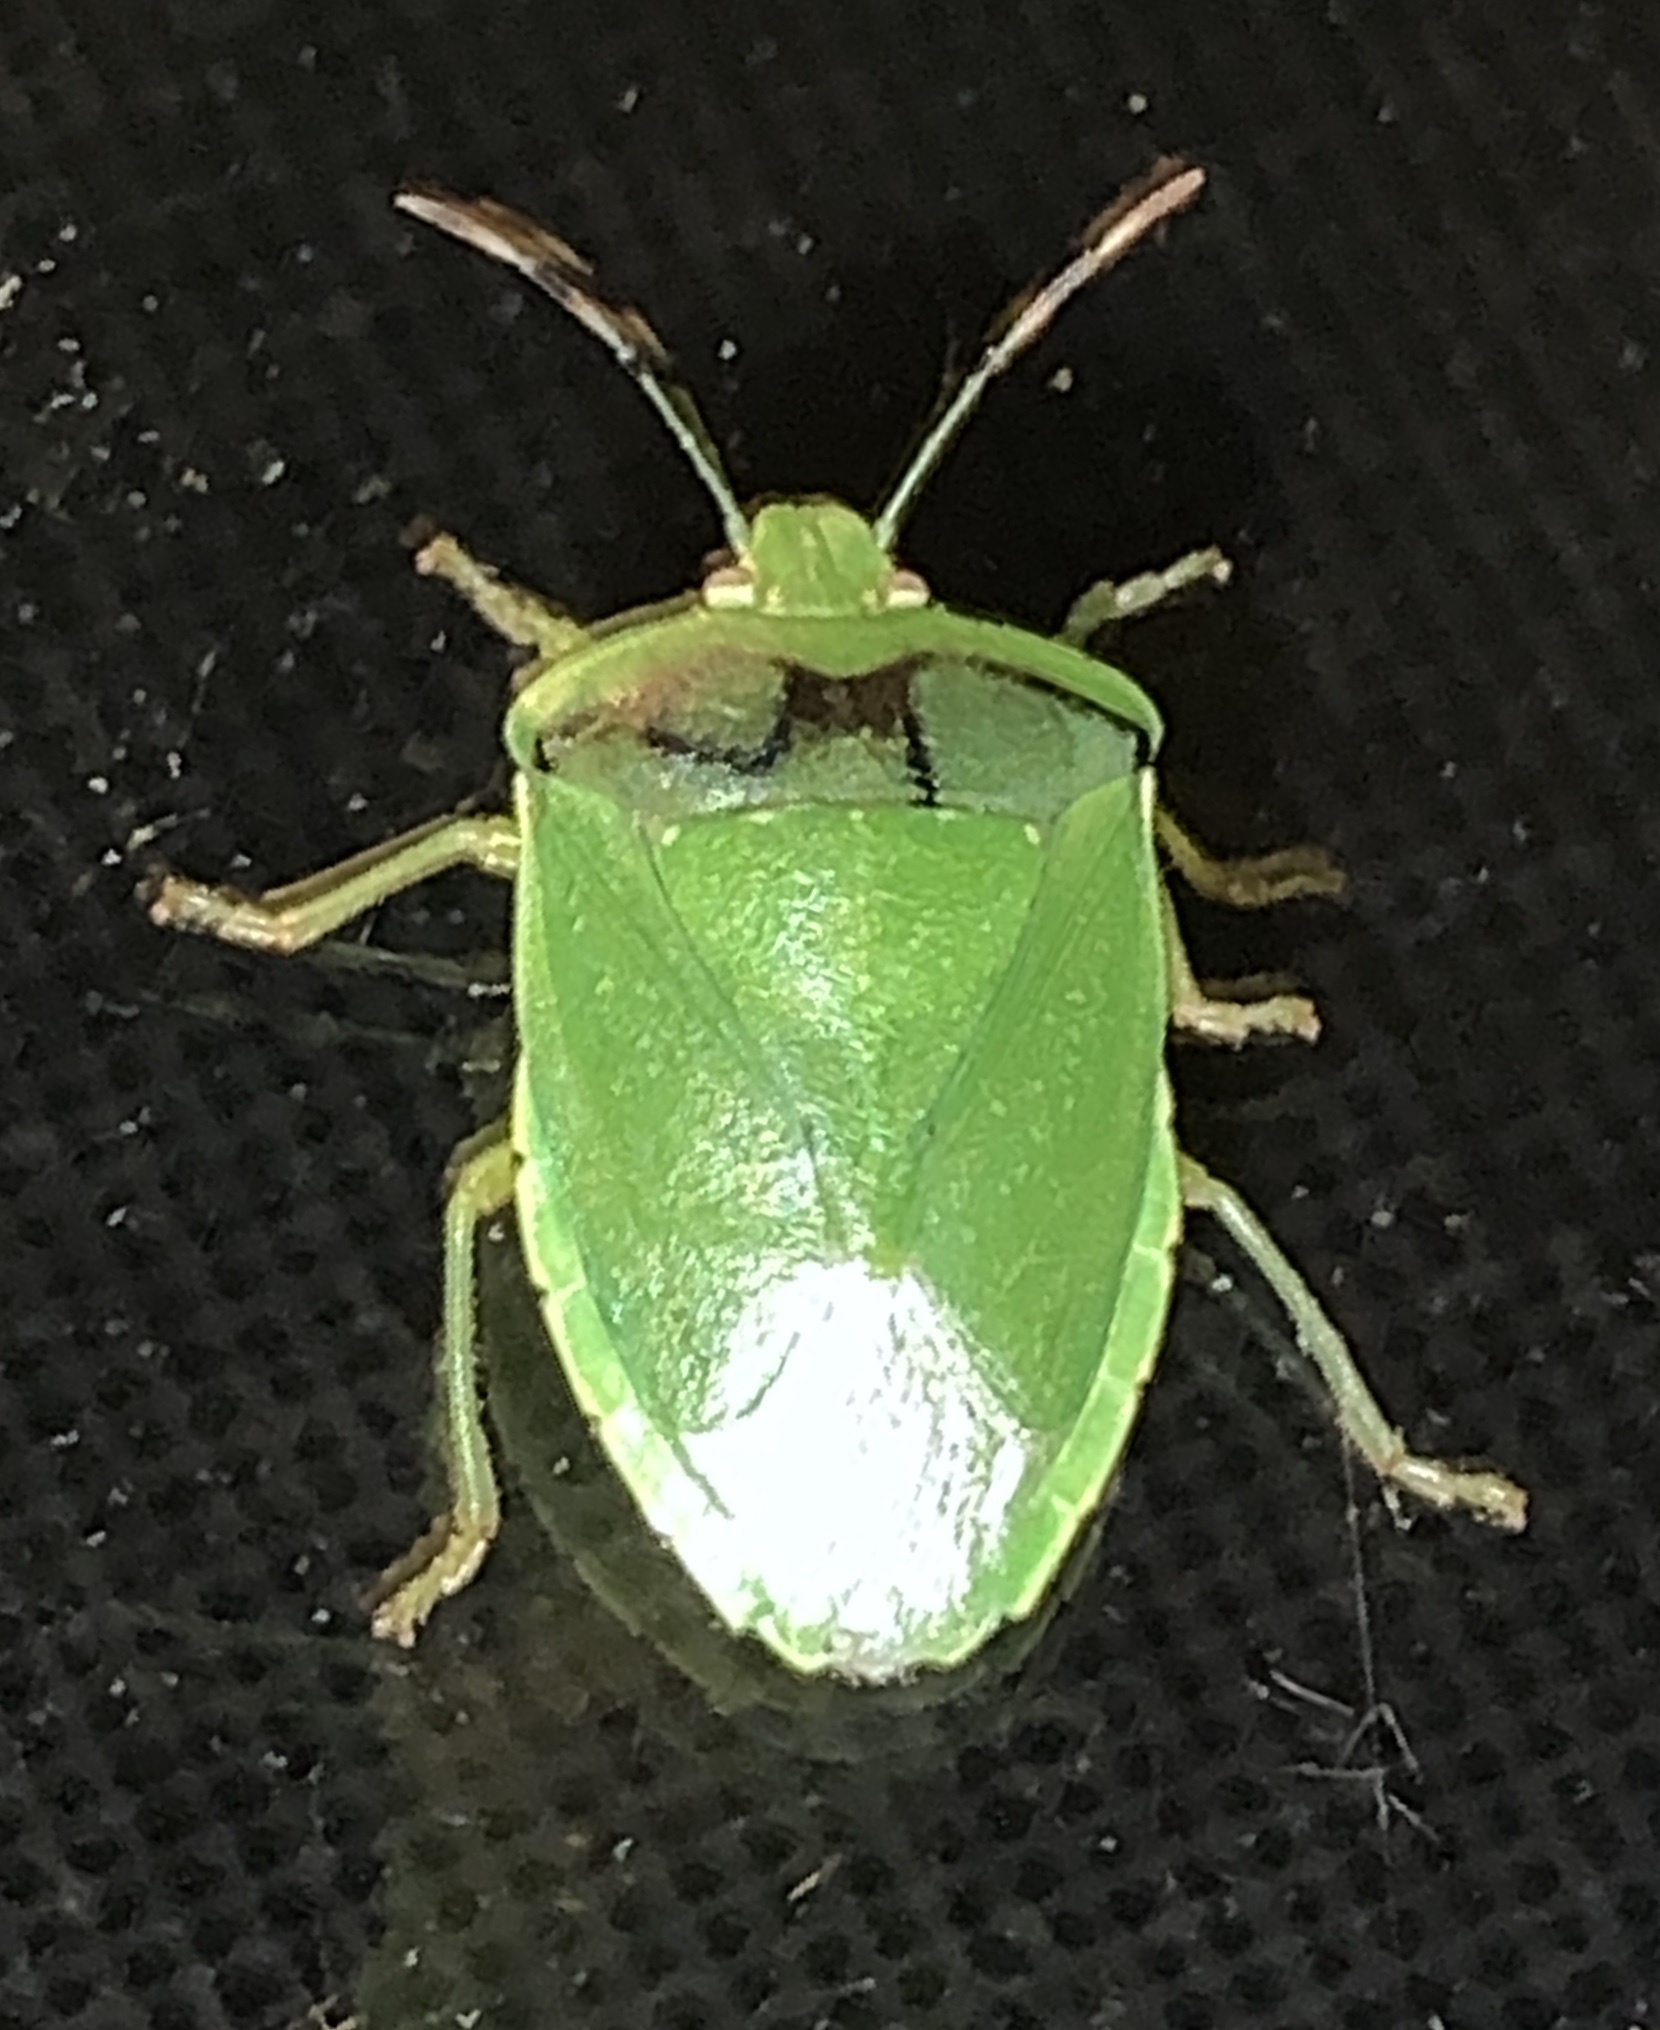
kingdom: Animalia
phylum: Arthropoda
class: Insecta
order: Hemiptera
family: Pentatomidae
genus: Chinavia
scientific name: Chinavia hilaris
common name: Green stink bug
